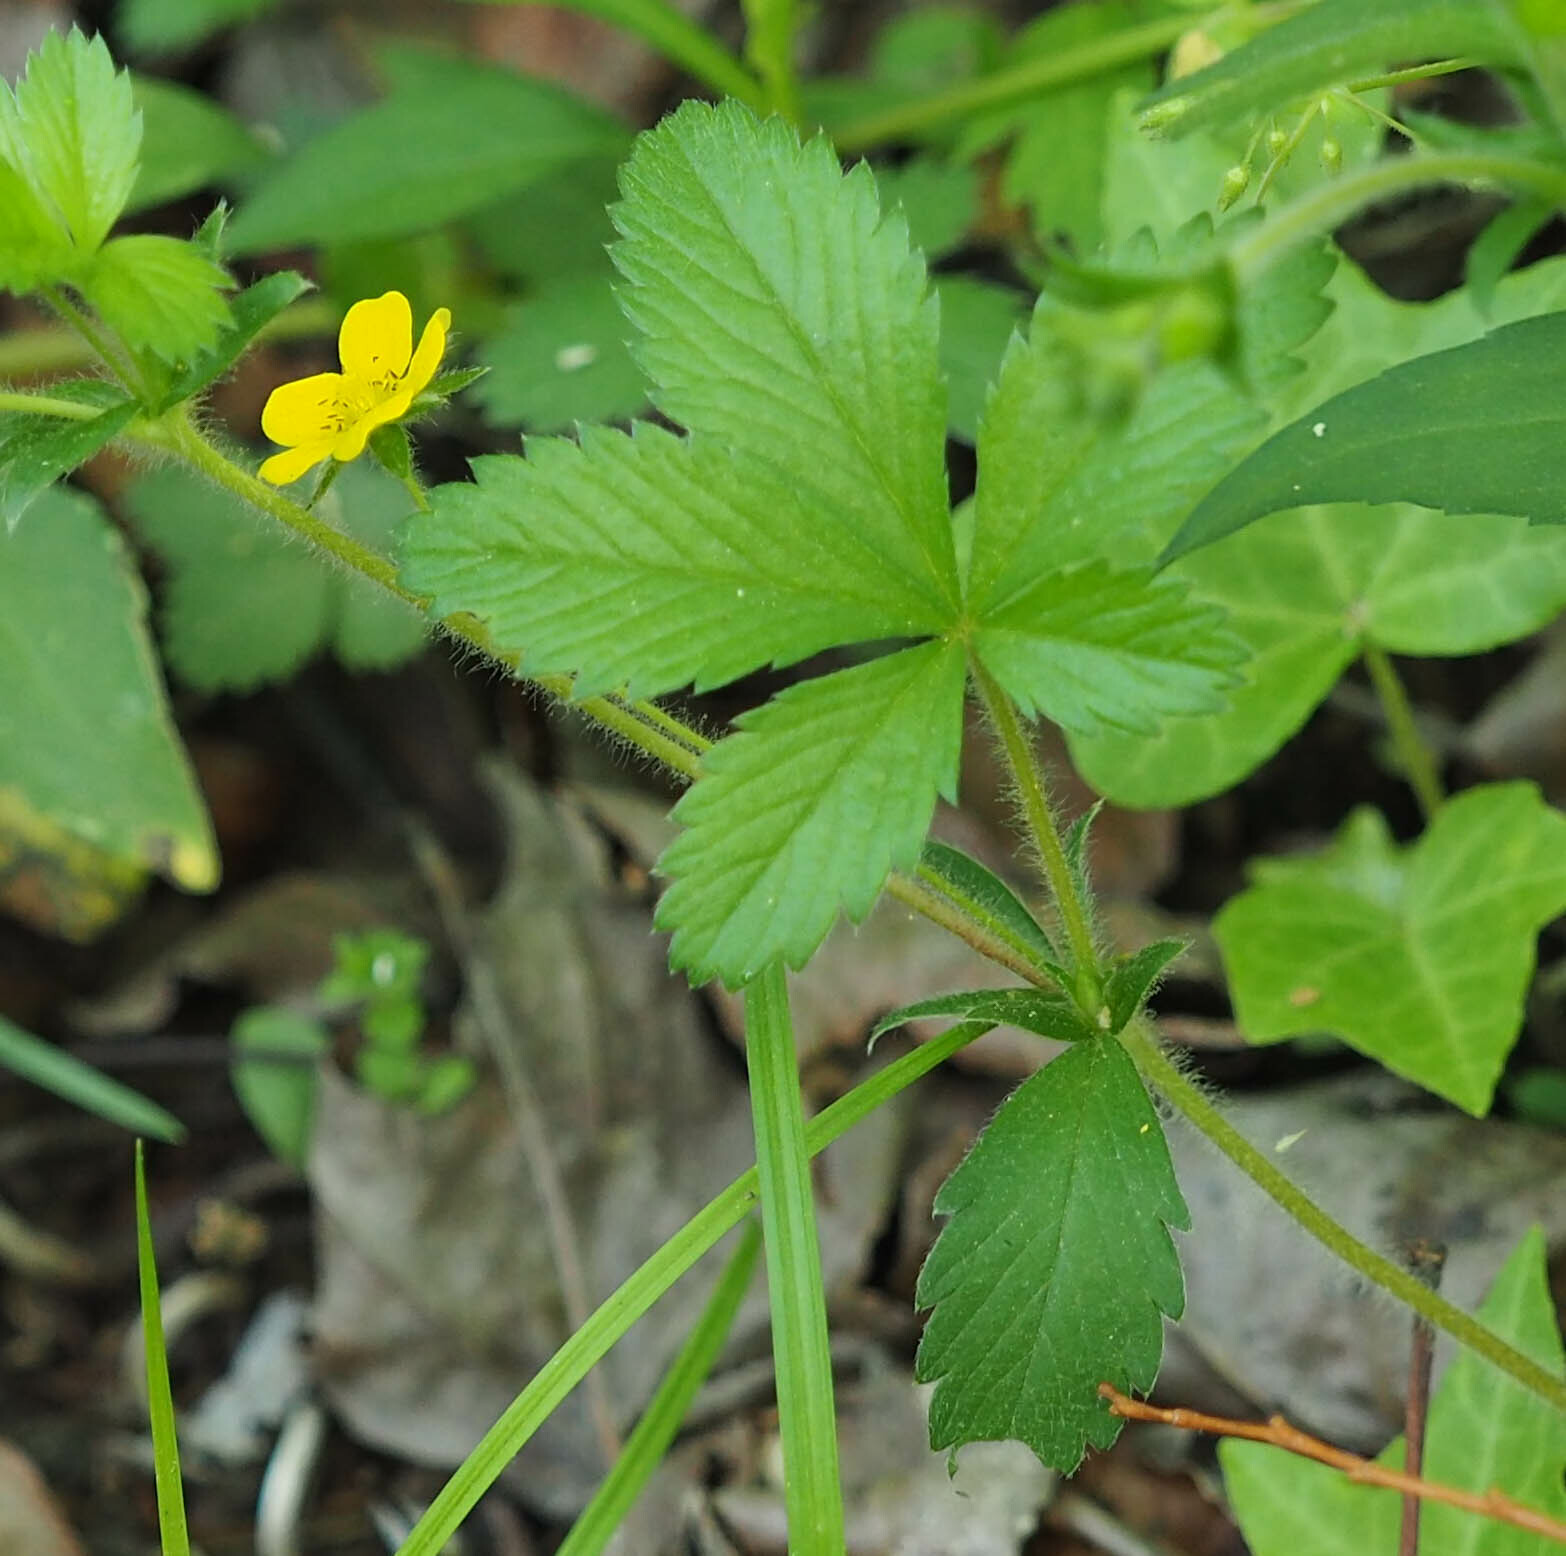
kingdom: Plantae
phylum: Tracheophyta
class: Magnoliopsida
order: Rosales
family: Rosaceae
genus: Potentilla
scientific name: Potentilla simplex
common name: Old field cinquefoil
